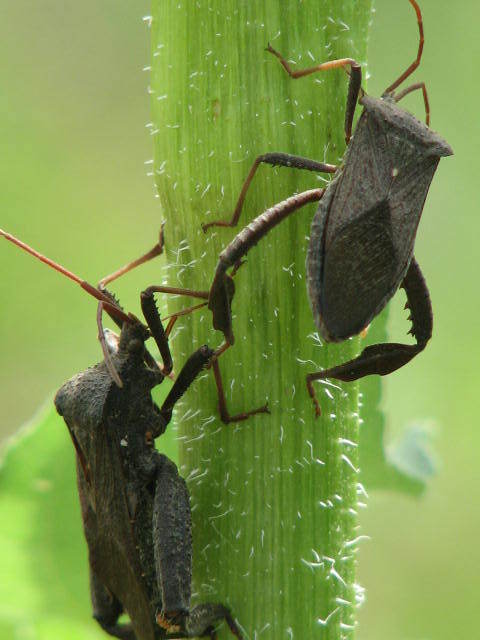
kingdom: Animalia
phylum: Arthropoda
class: Insecta
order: Hemiptera
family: Coreidae
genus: Acanthocephala
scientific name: Acanthocephala femorata
